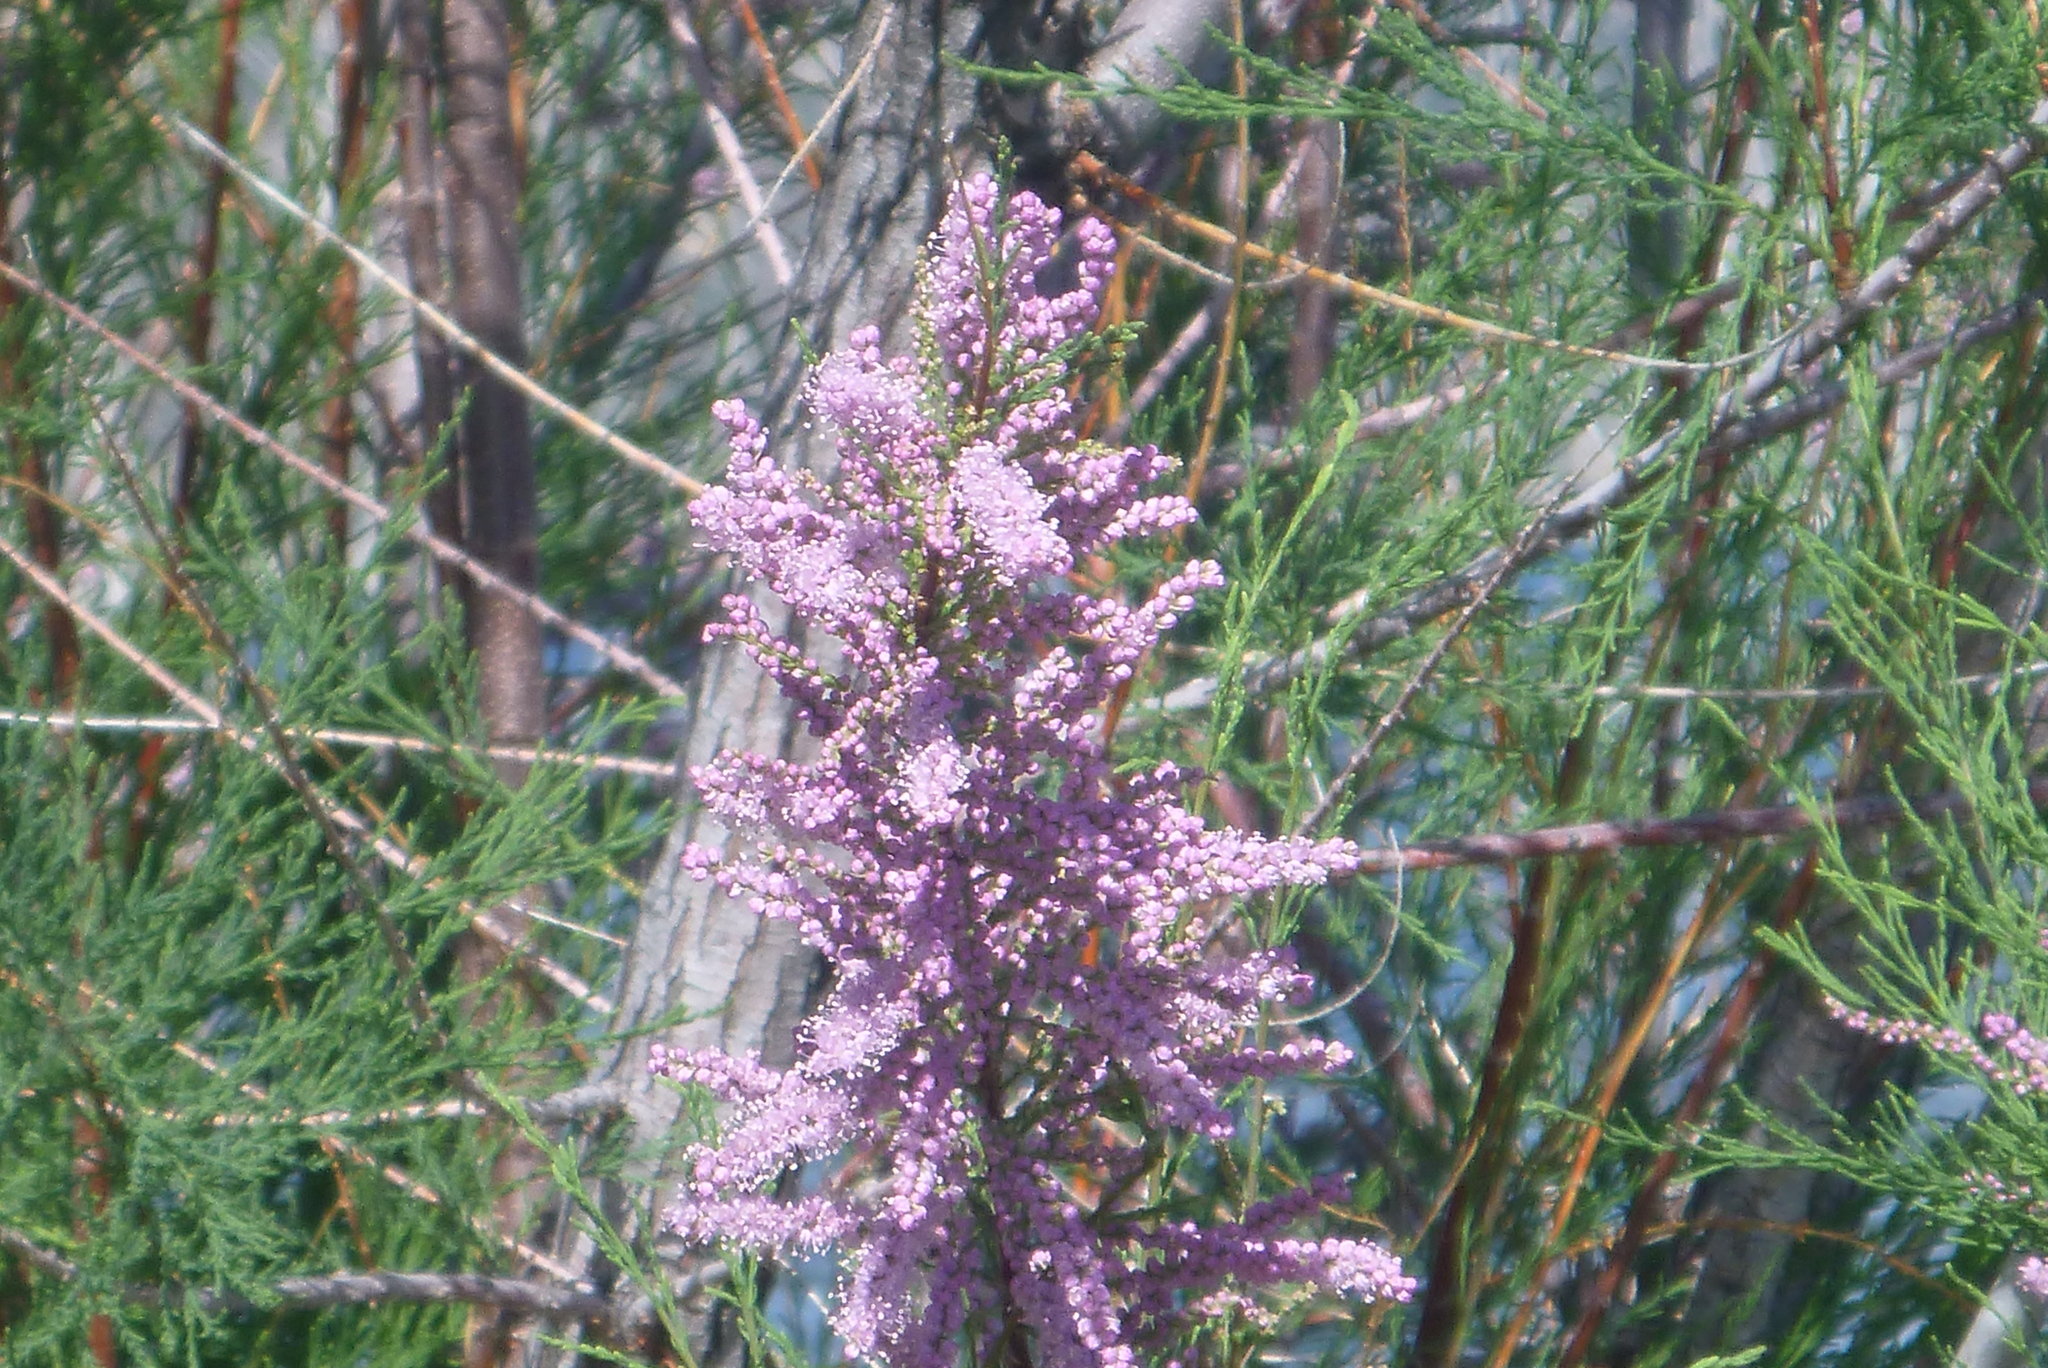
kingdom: Plantae
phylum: Tracheophyta
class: Magnoliopsida
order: Caryophyllales
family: Tamaricaceae
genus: Tamarix
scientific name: Tamarix ramosissima
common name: Pink tamarisk
